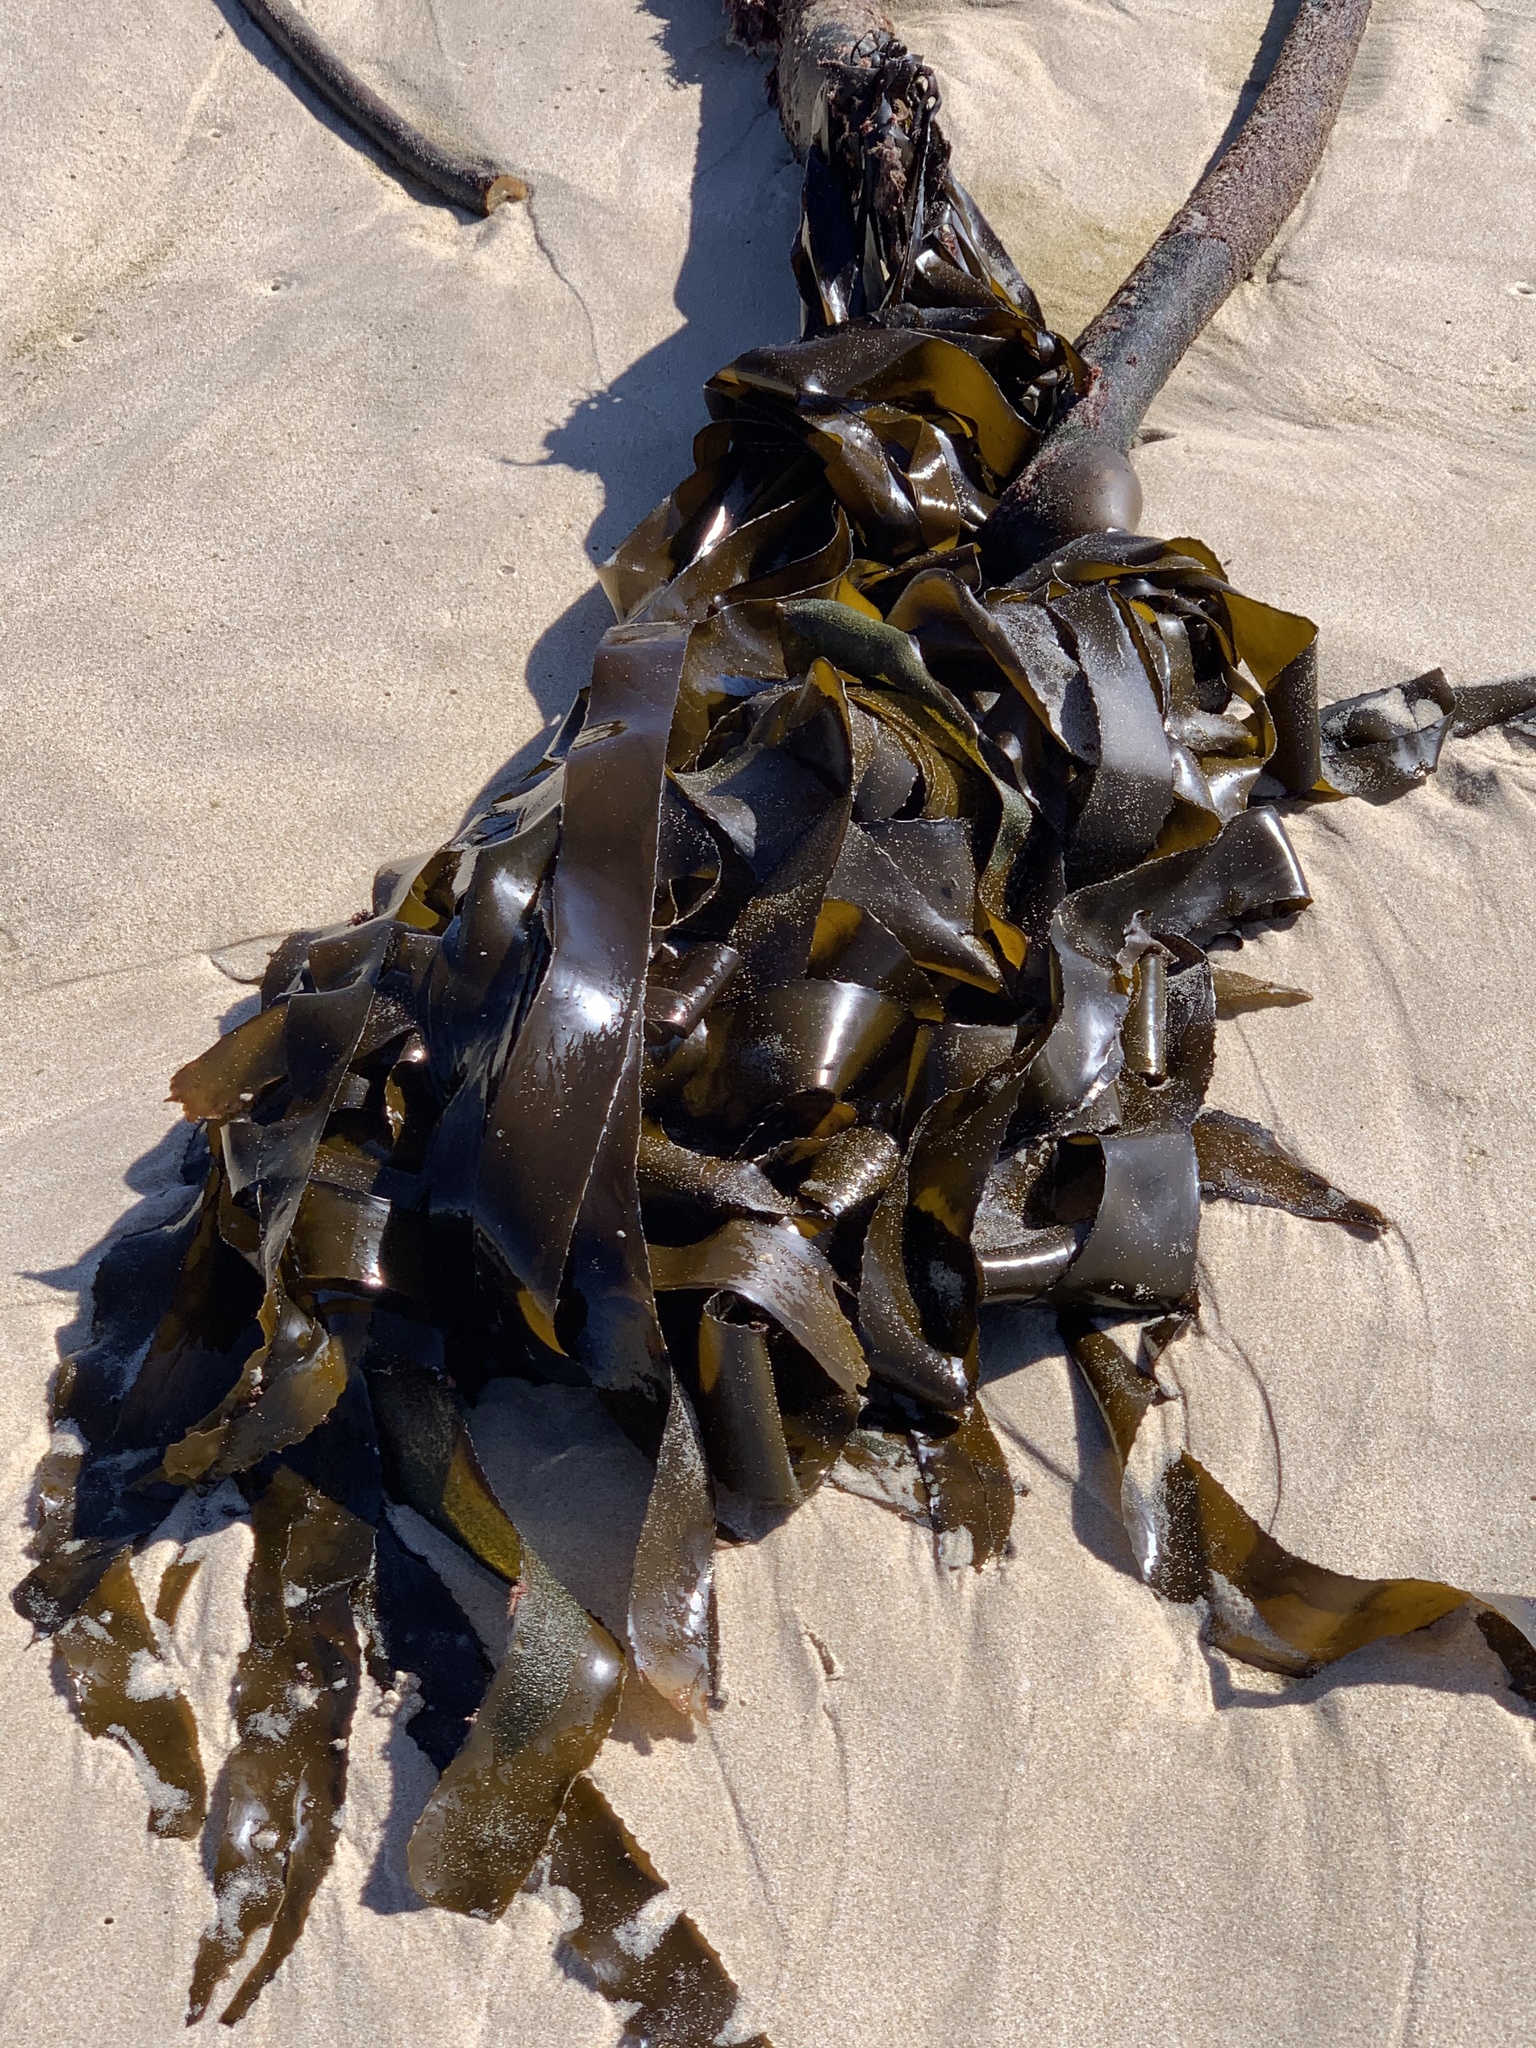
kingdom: Chromista
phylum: Ochrophyta
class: Phaeophyceae
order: Laminariales
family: Lessoniaceae
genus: Ecklonia
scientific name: Ecklonia
